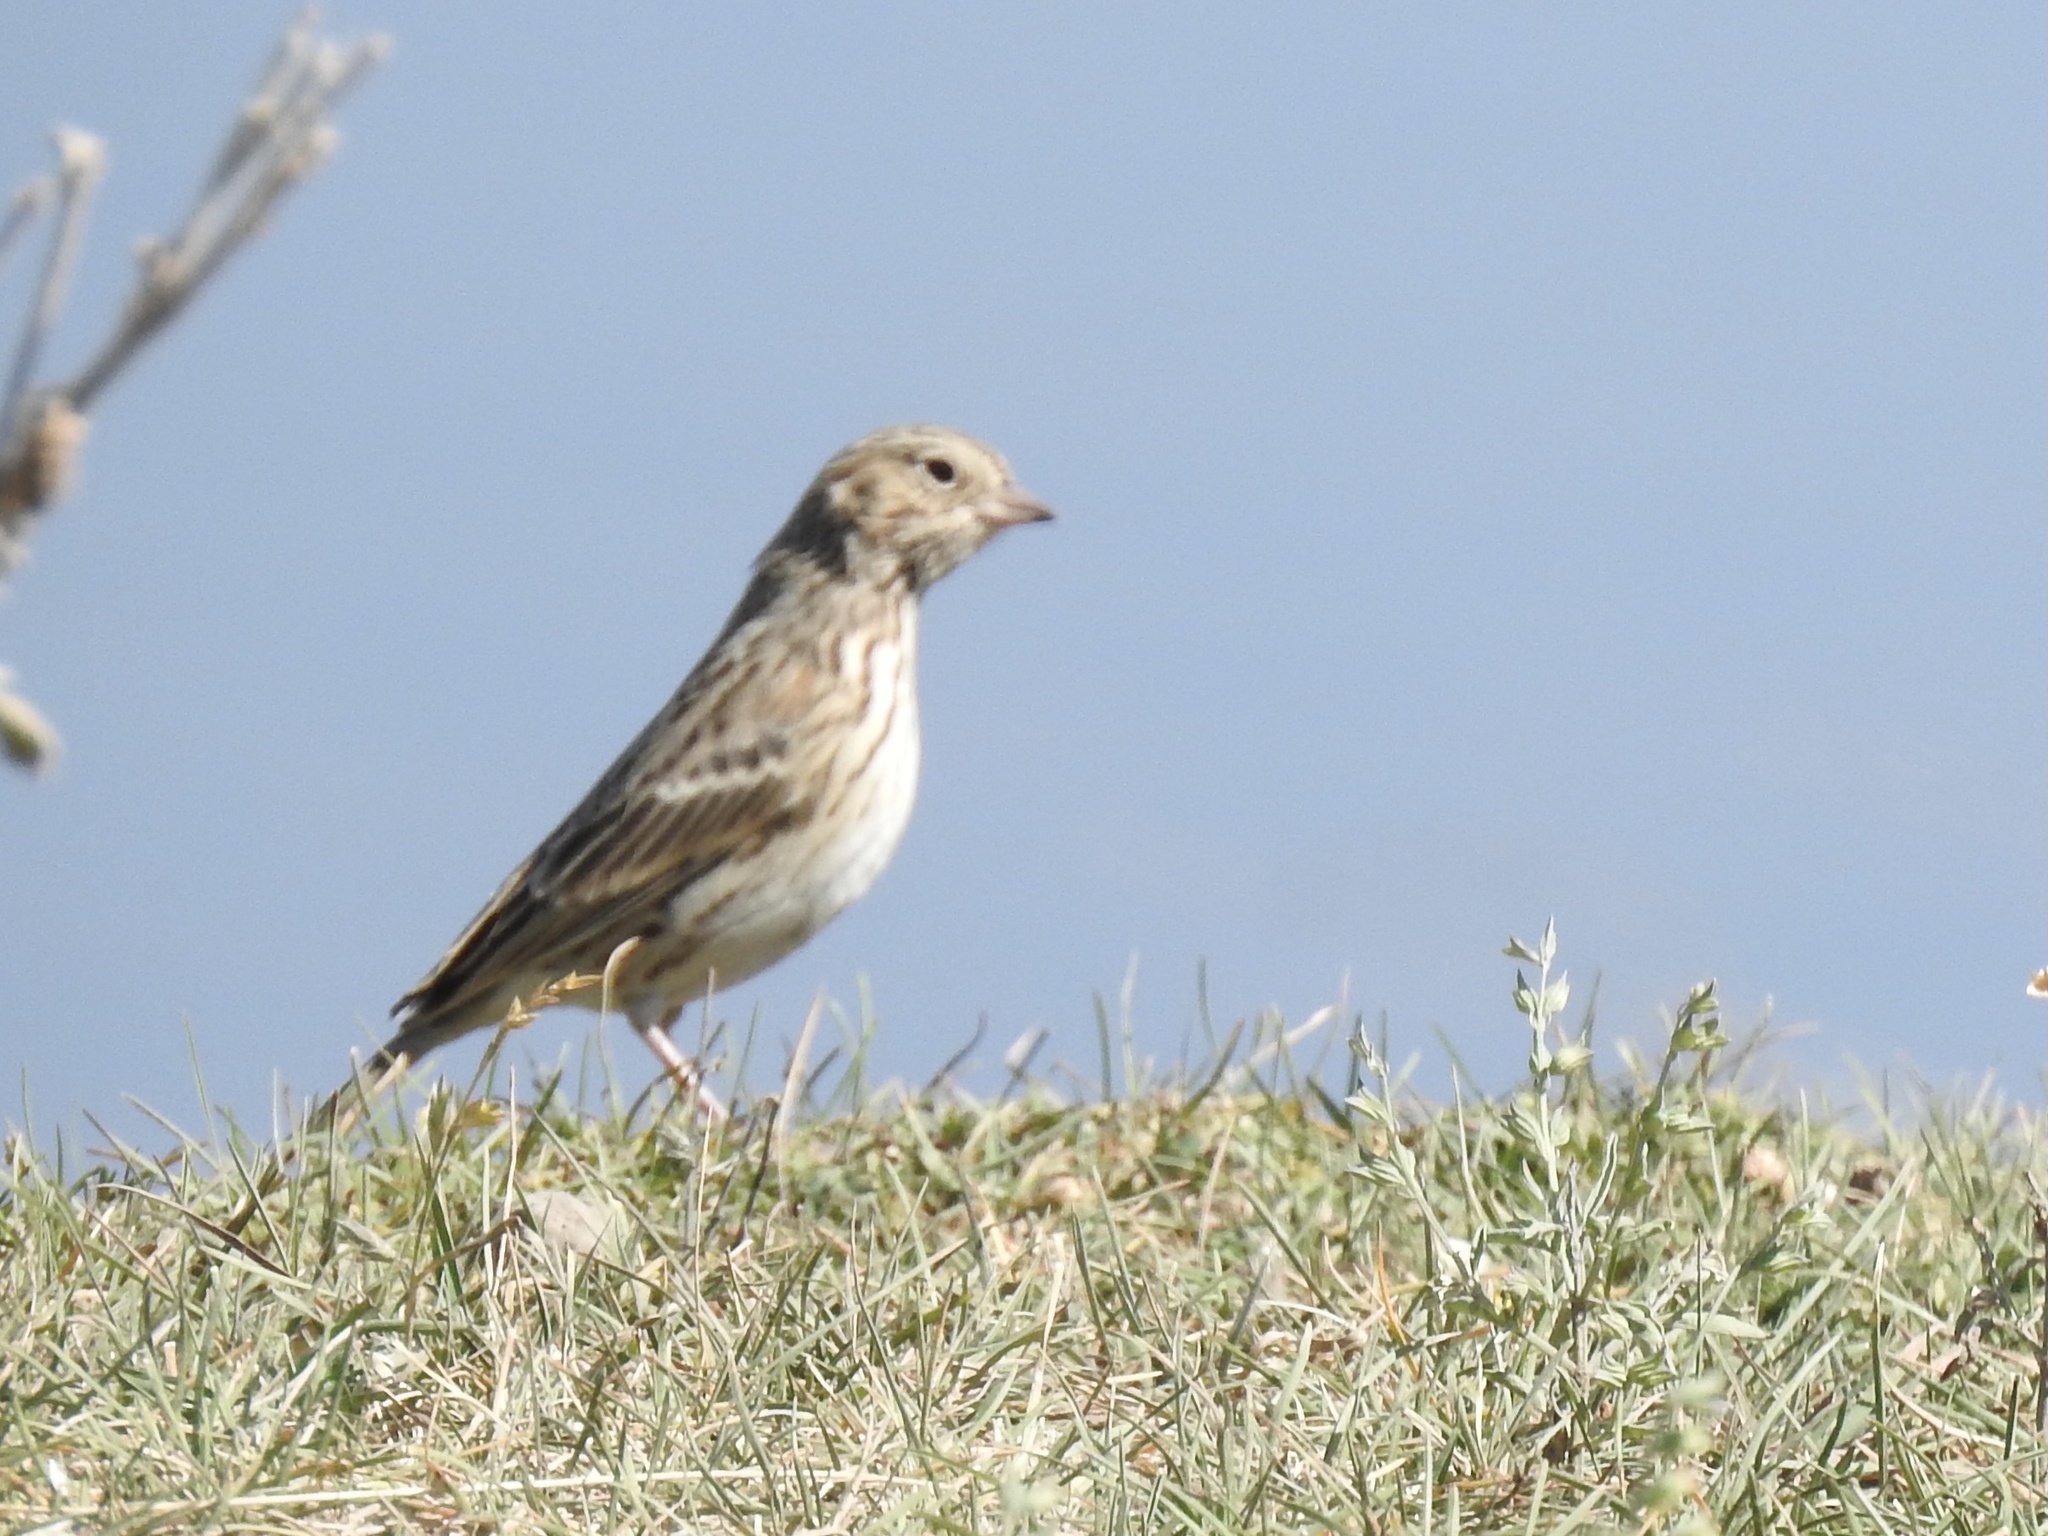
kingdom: Animalia
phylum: Chordata
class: Aves
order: Passeriformes
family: Passerellidae
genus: Pooecetes
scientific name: Pooecetes gramineus
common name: Vesper sparrow
